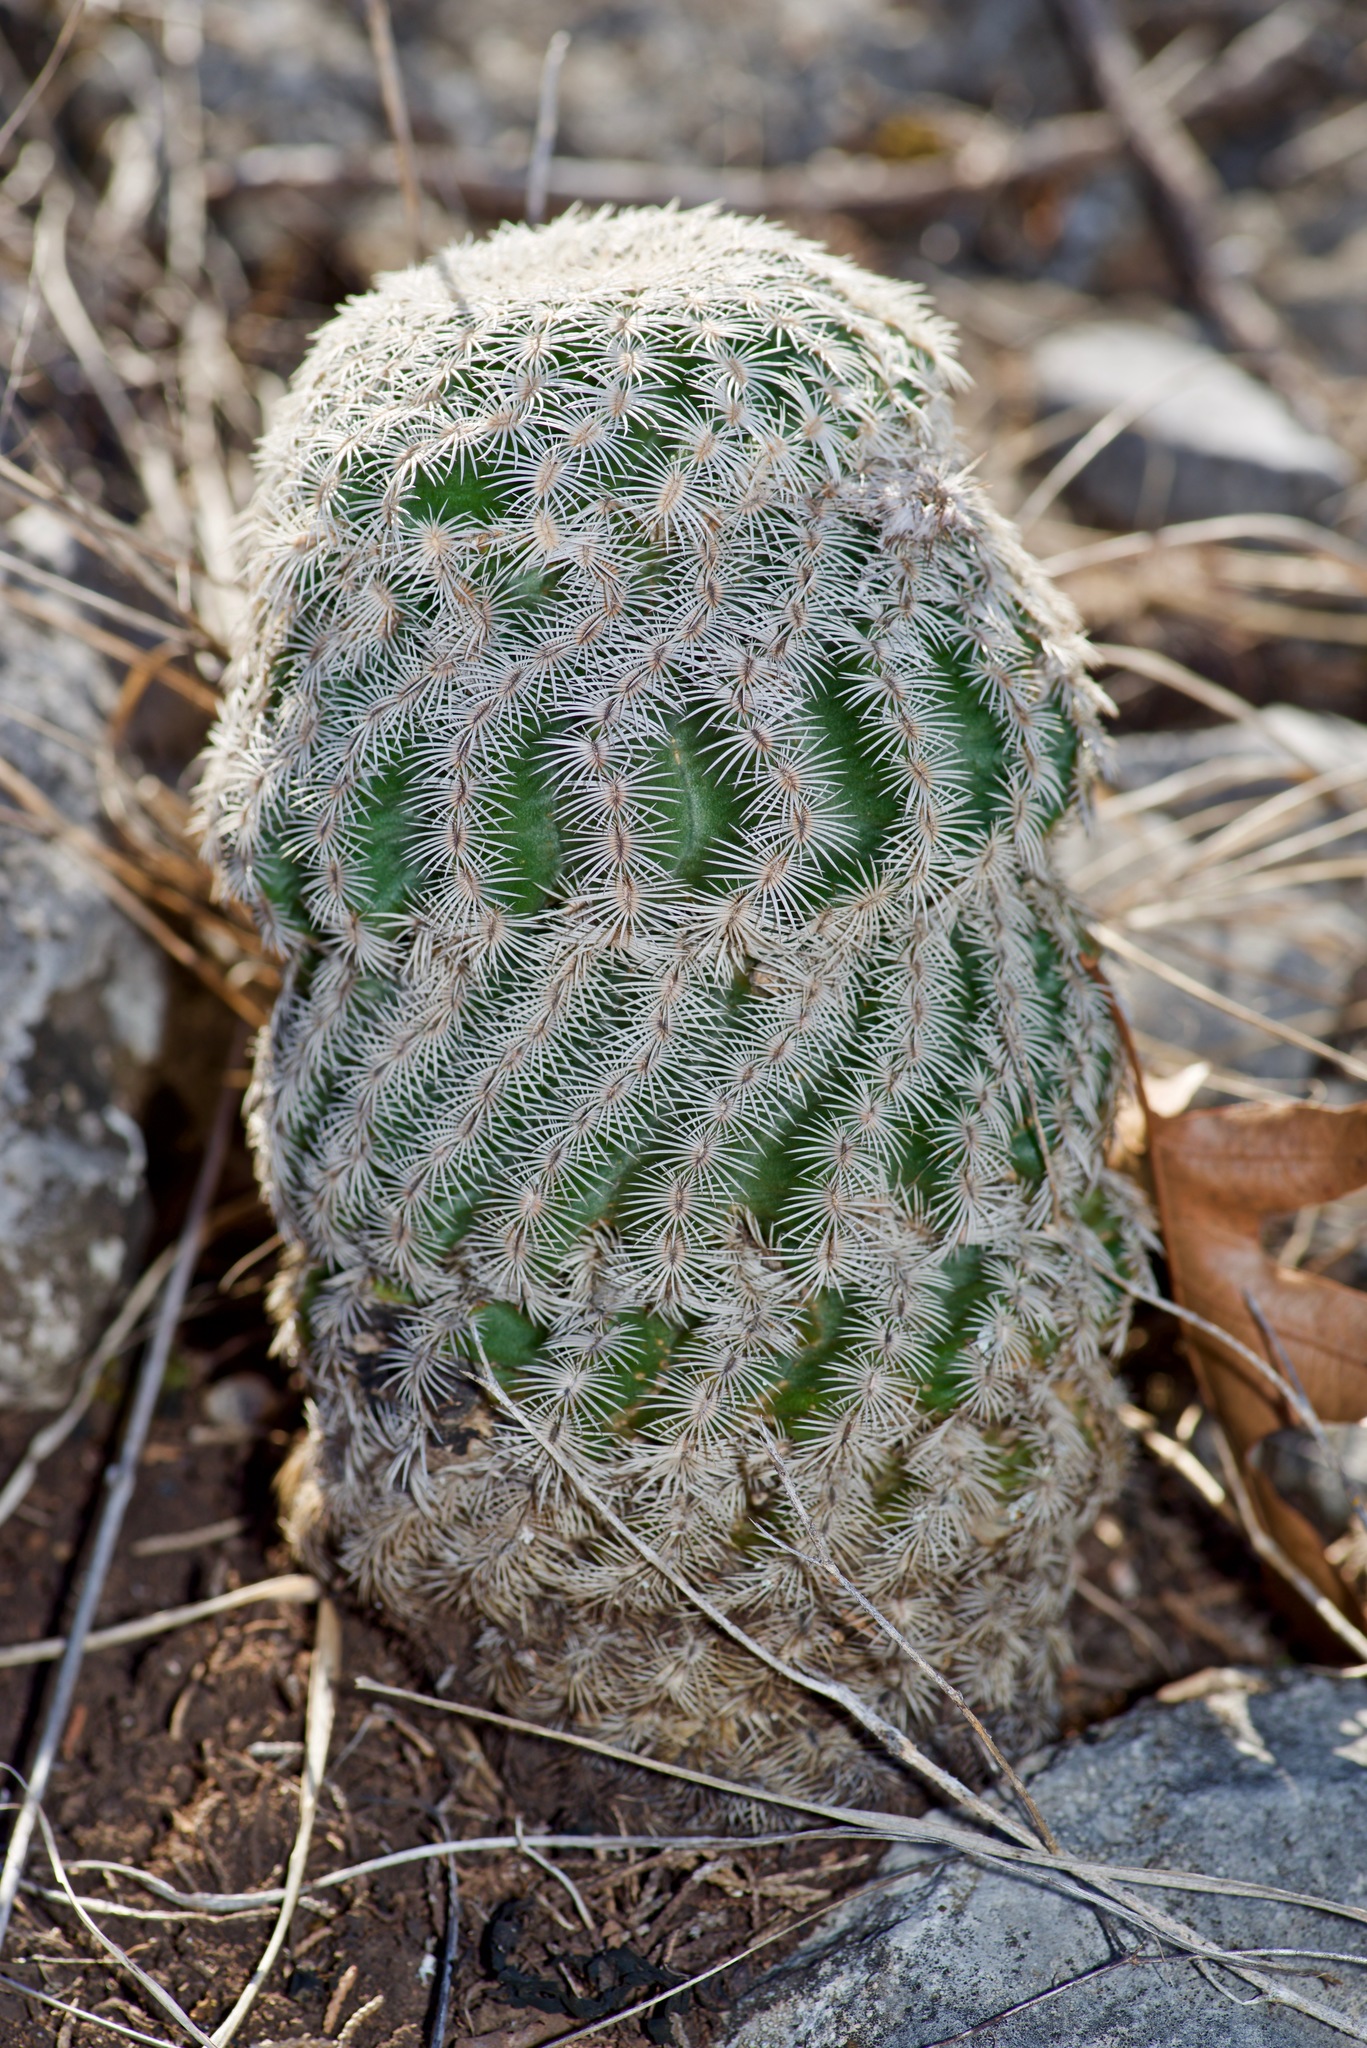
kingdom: Plantae
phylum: Tracheophyta
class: Magnoliopsida
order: Caryophyllales
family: Cactaceae
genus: Echinocereus
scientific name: Echinocereus reichenbachii
